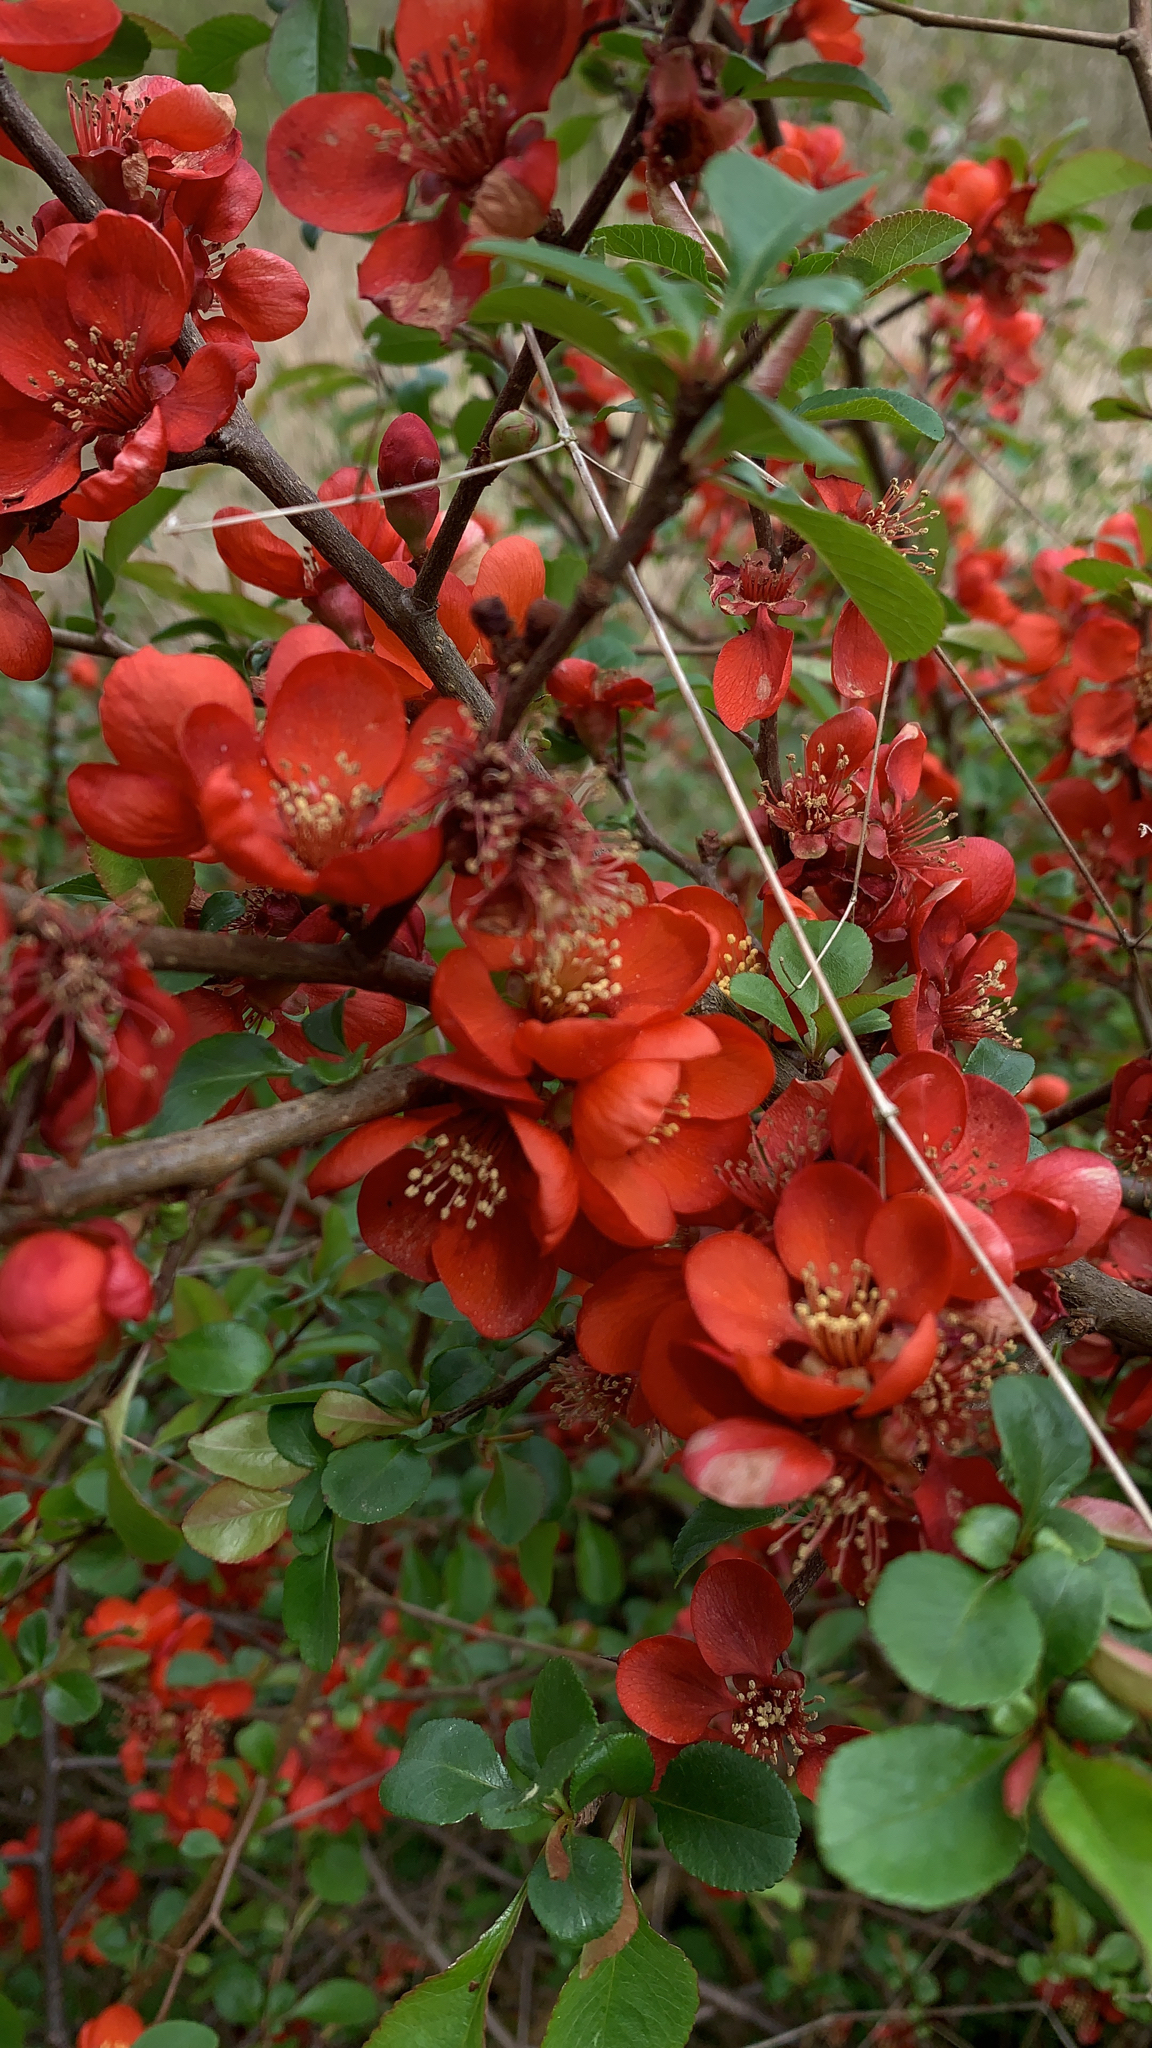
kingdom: Plantae
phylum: Tracheophyta
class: Magnoliopsida
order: Rosales
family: Rosaceae
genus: Chaenomeles
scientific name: Chaenomeles speciosa
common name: Japanese quince
